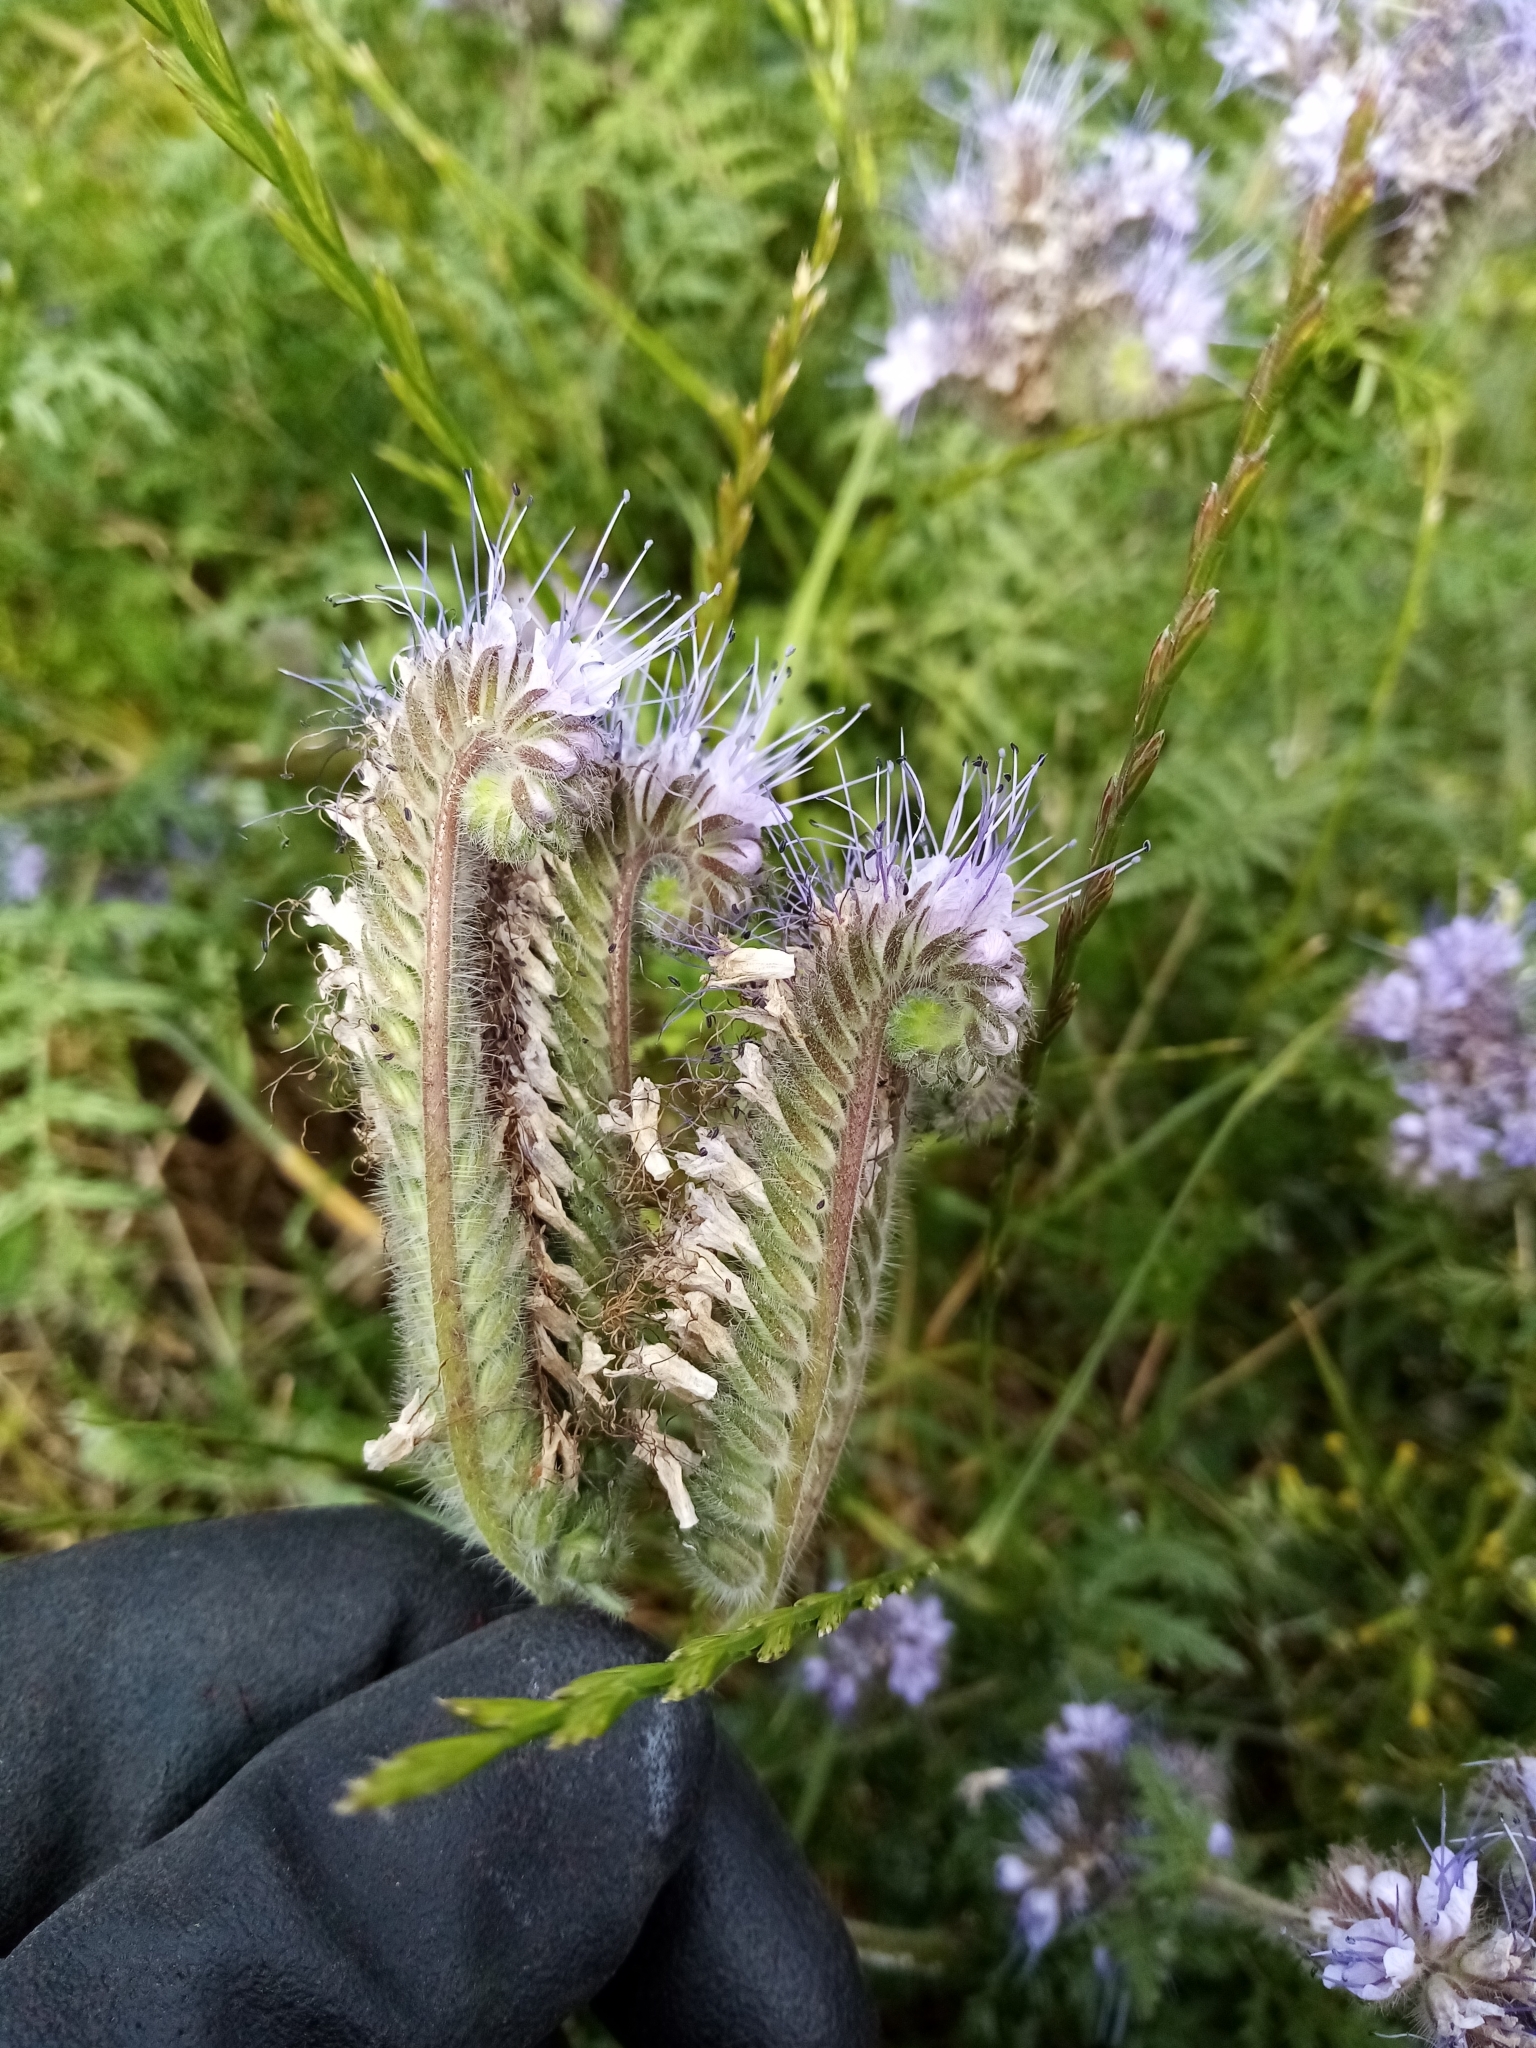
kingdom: Plantae
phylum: Tracheophyta
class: Magnoliopsida
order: Boraginales
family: Hydrophyllaceae
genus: Phacelia
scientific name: Phacelia tanacetifolia
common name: Phacelia
